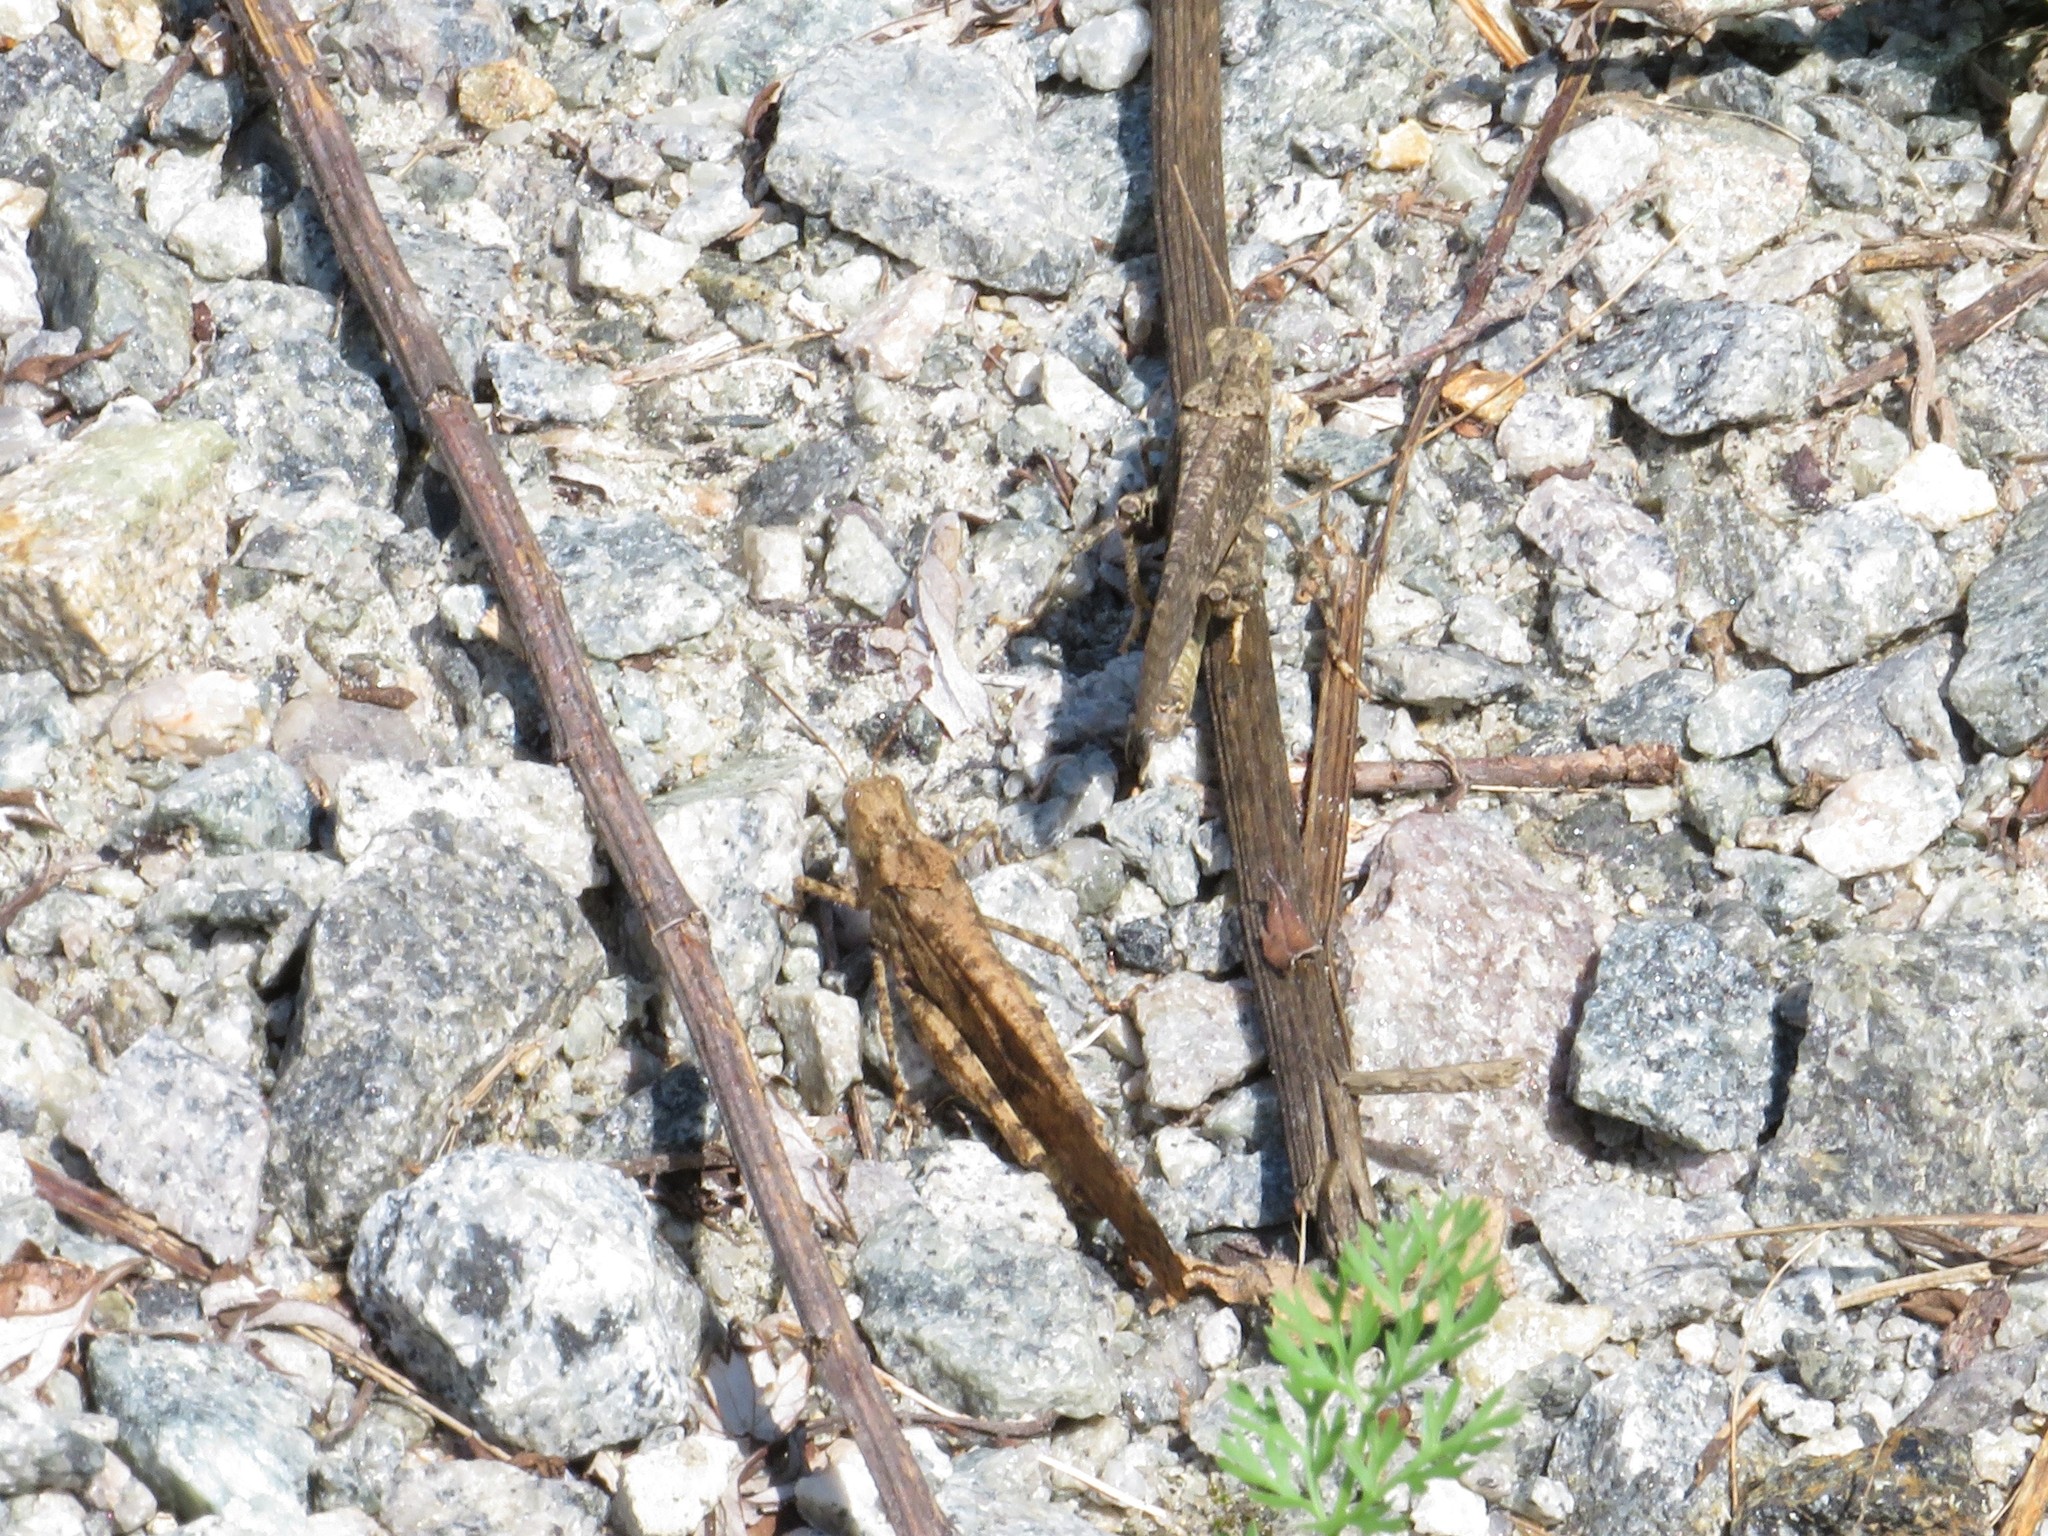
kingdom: Animalia
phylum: Arthropoda
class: Insecta
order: Orthoptera
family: Acrididae
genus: Dissosteira
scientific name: Dissosteira carolina
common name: Carolina grasshopper
